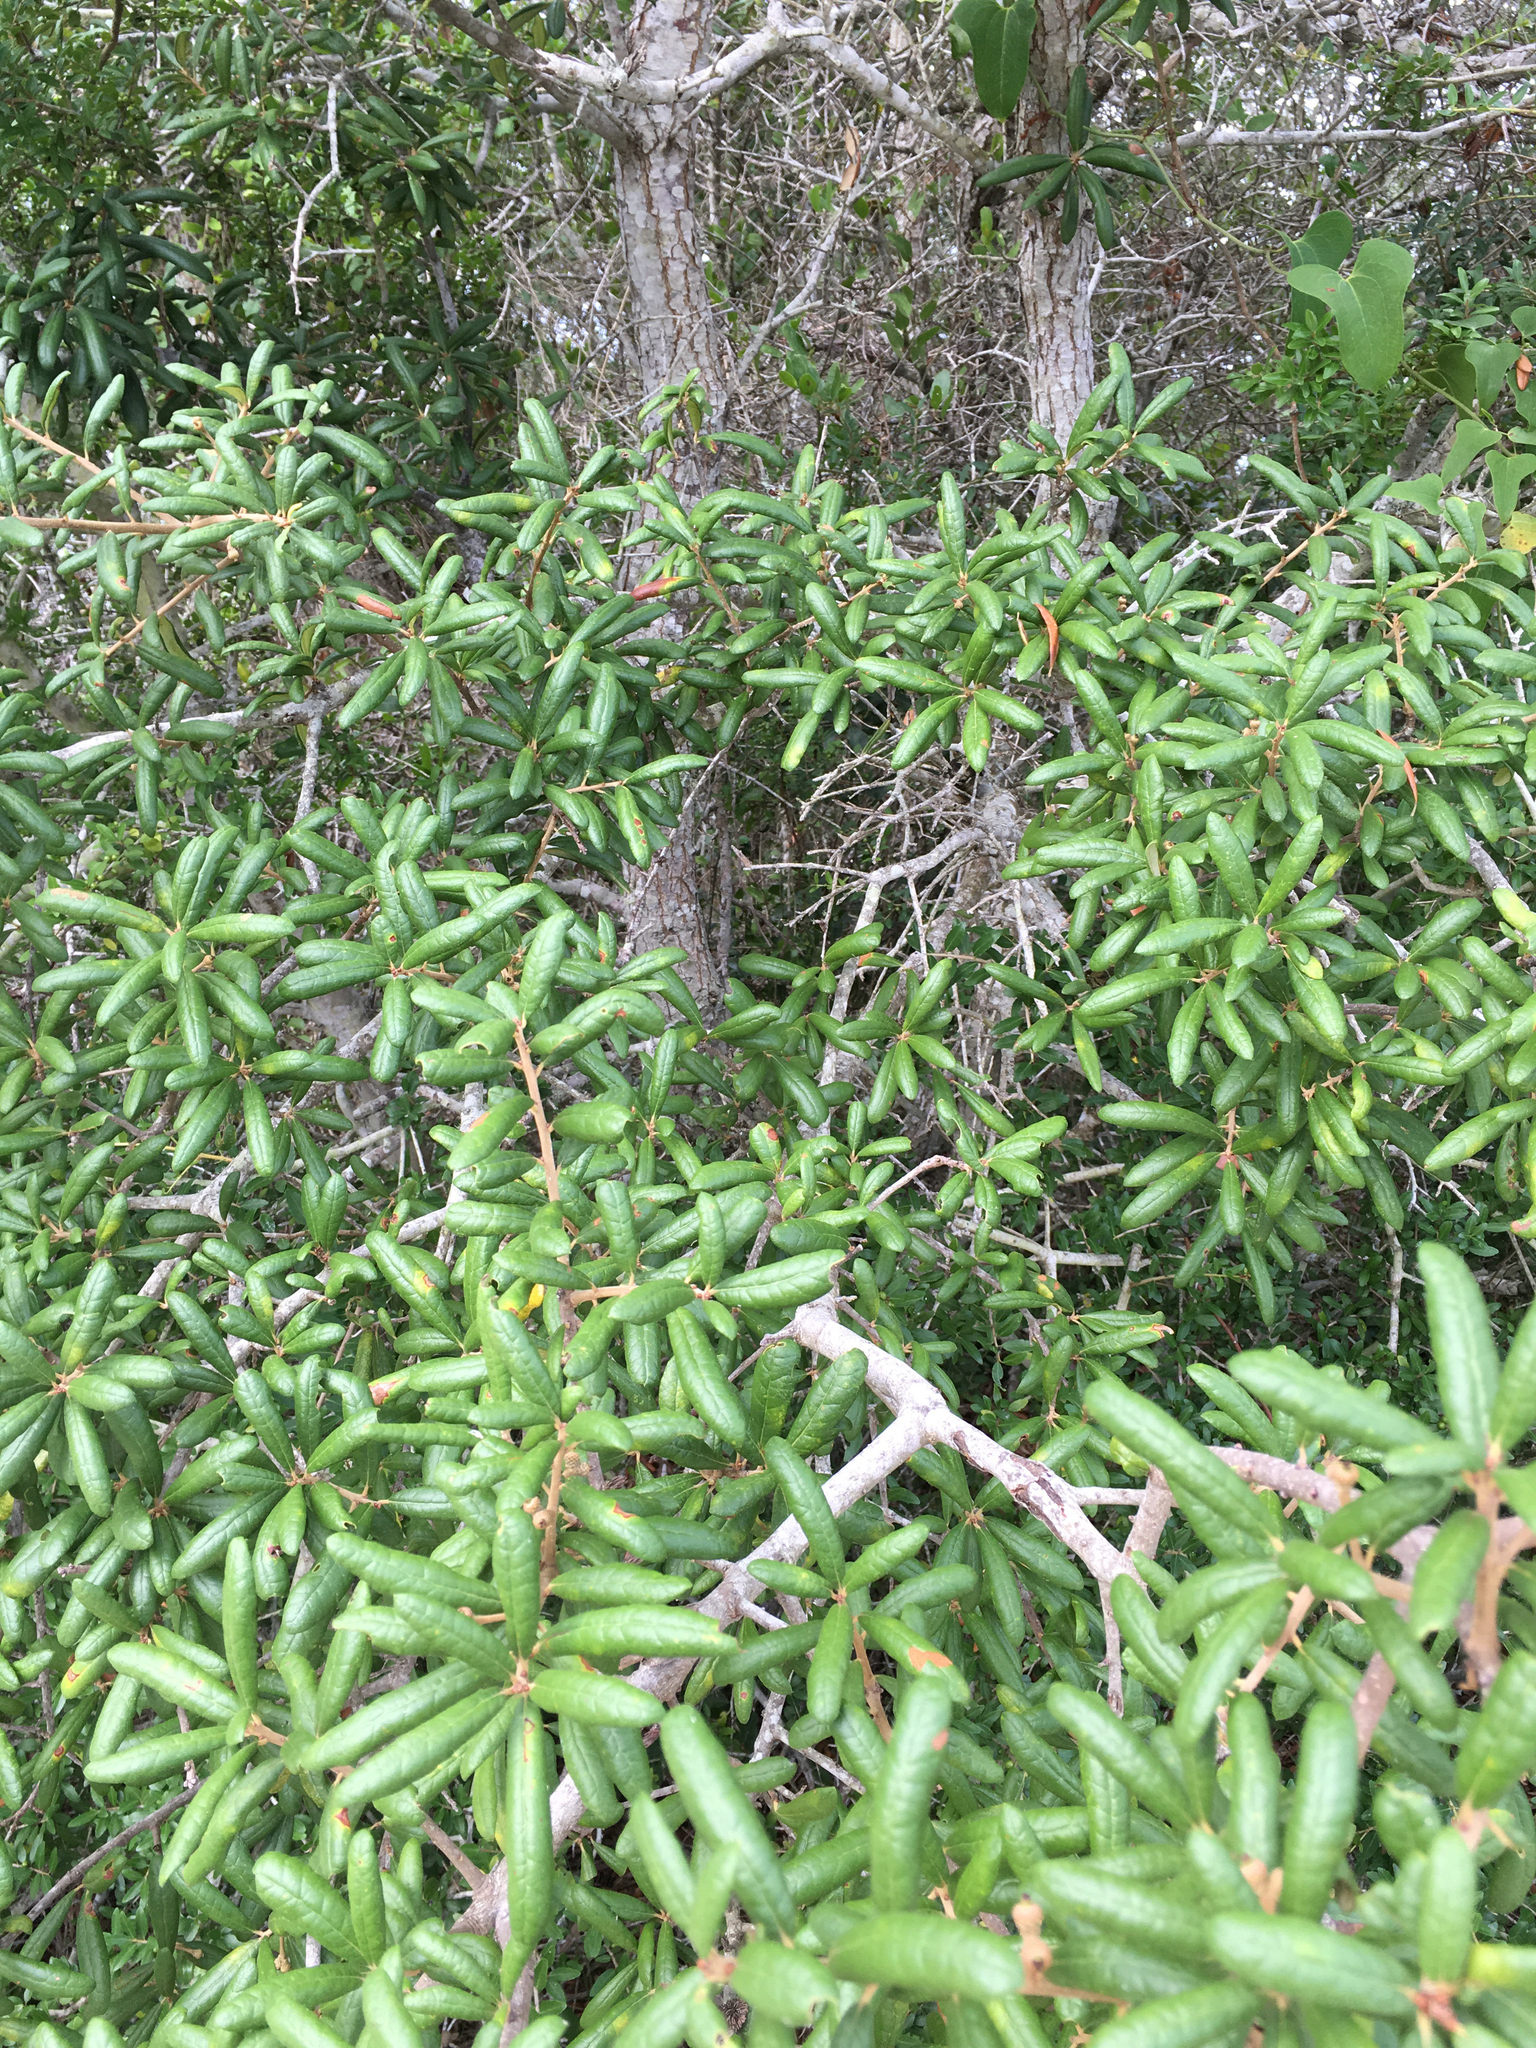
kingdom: Plantae
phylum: Tracheophyta
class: Magnoliopsida
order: Fagales
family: Fagaceae
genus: Quercus
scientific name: Quercus geminata
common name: Sand live oak
